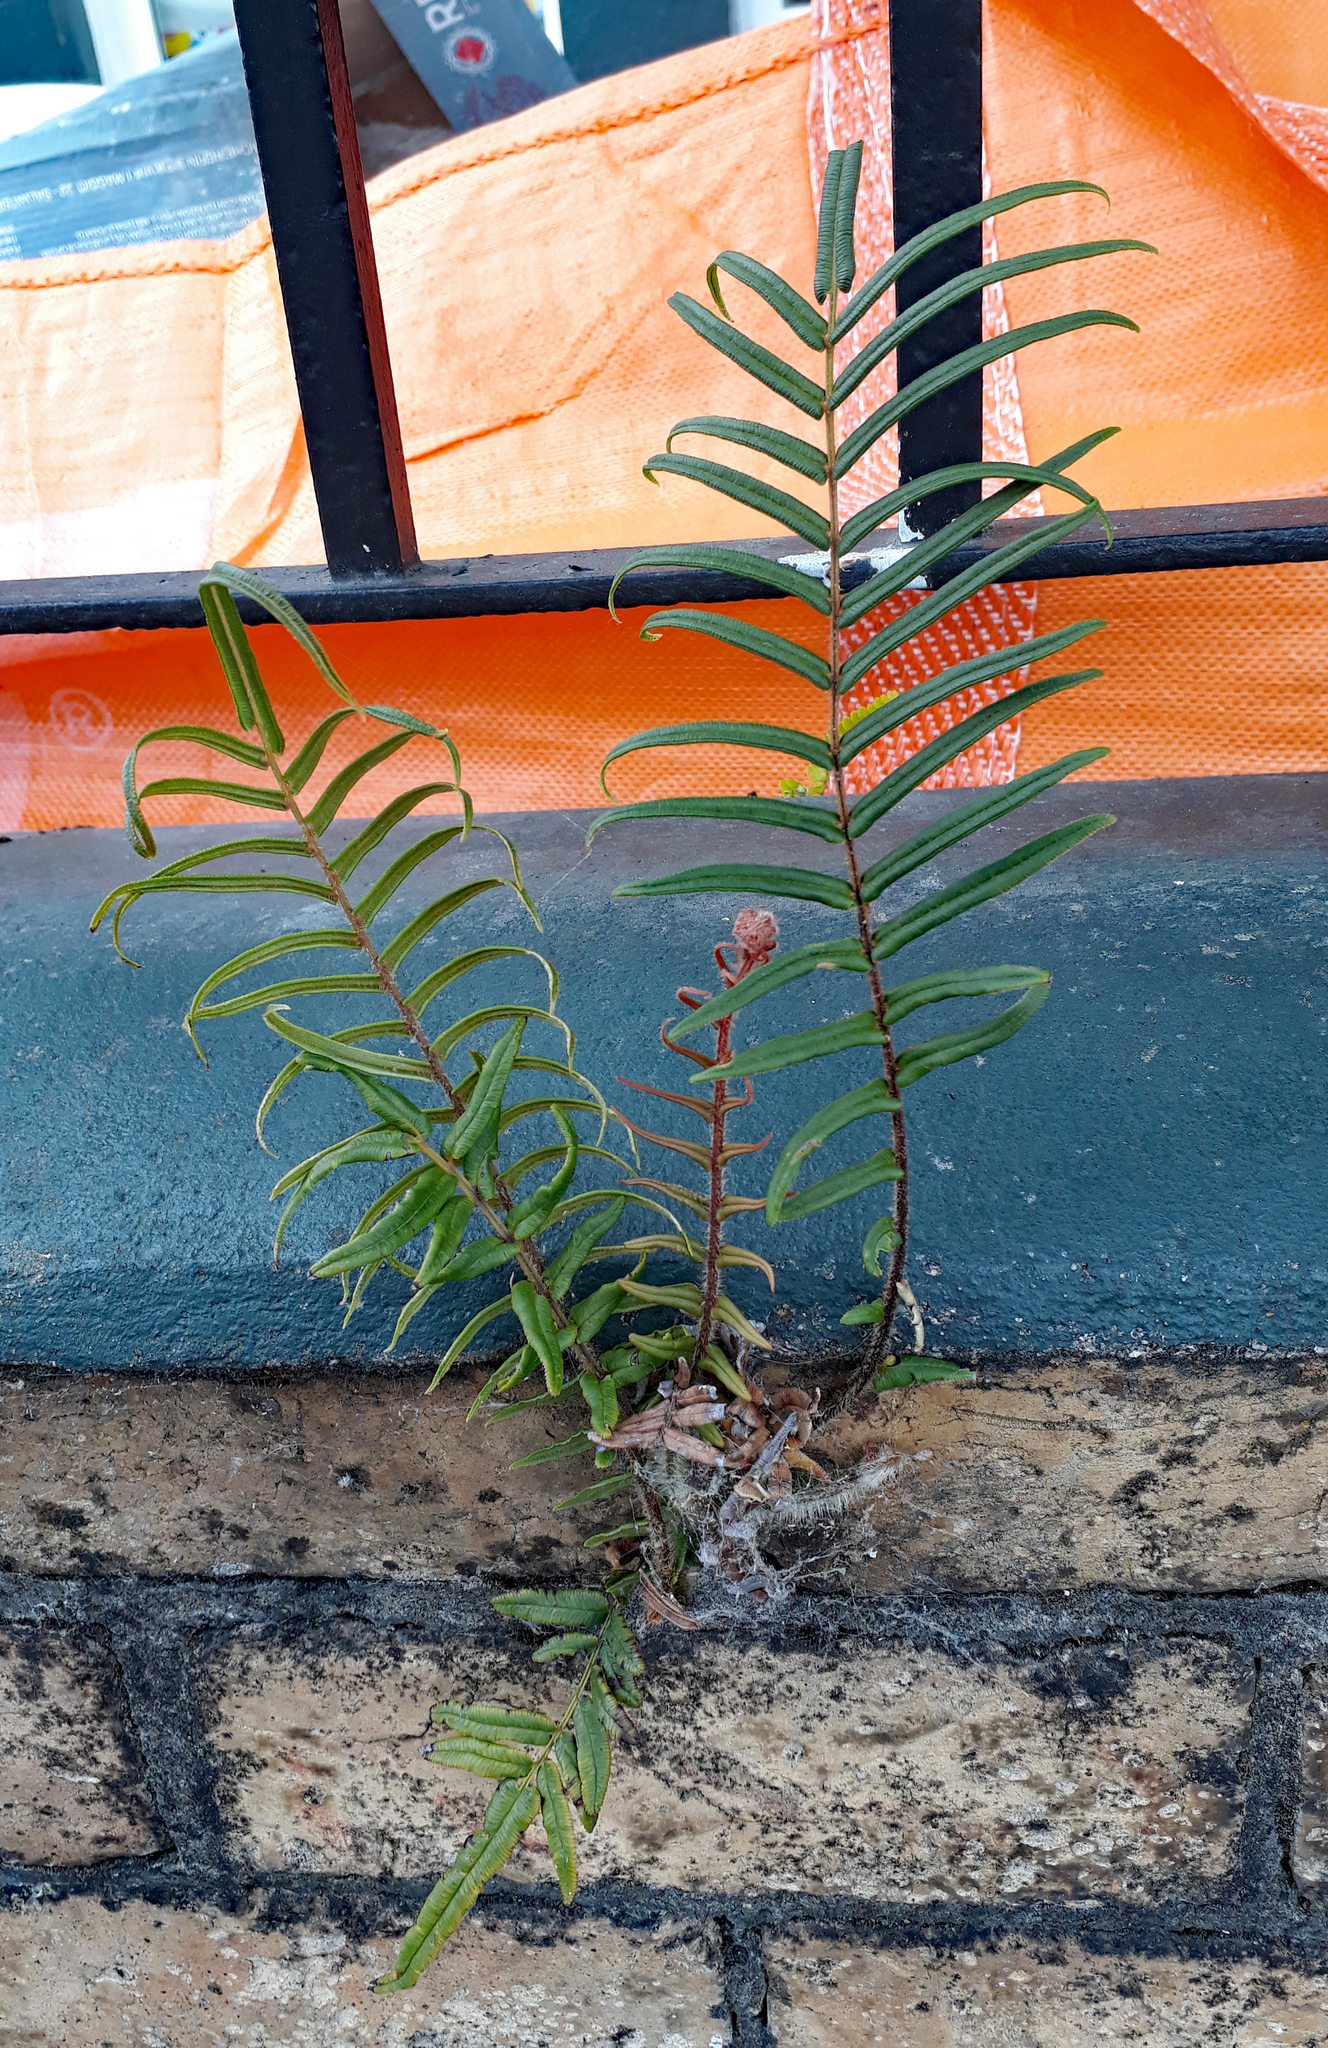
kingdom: Plantae
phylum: Tracheophyta
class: Polypodiopsida
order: Polypodiales
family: Pteridaceae
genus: Pteris
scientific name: Pteris vittata
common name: Ladder brake
